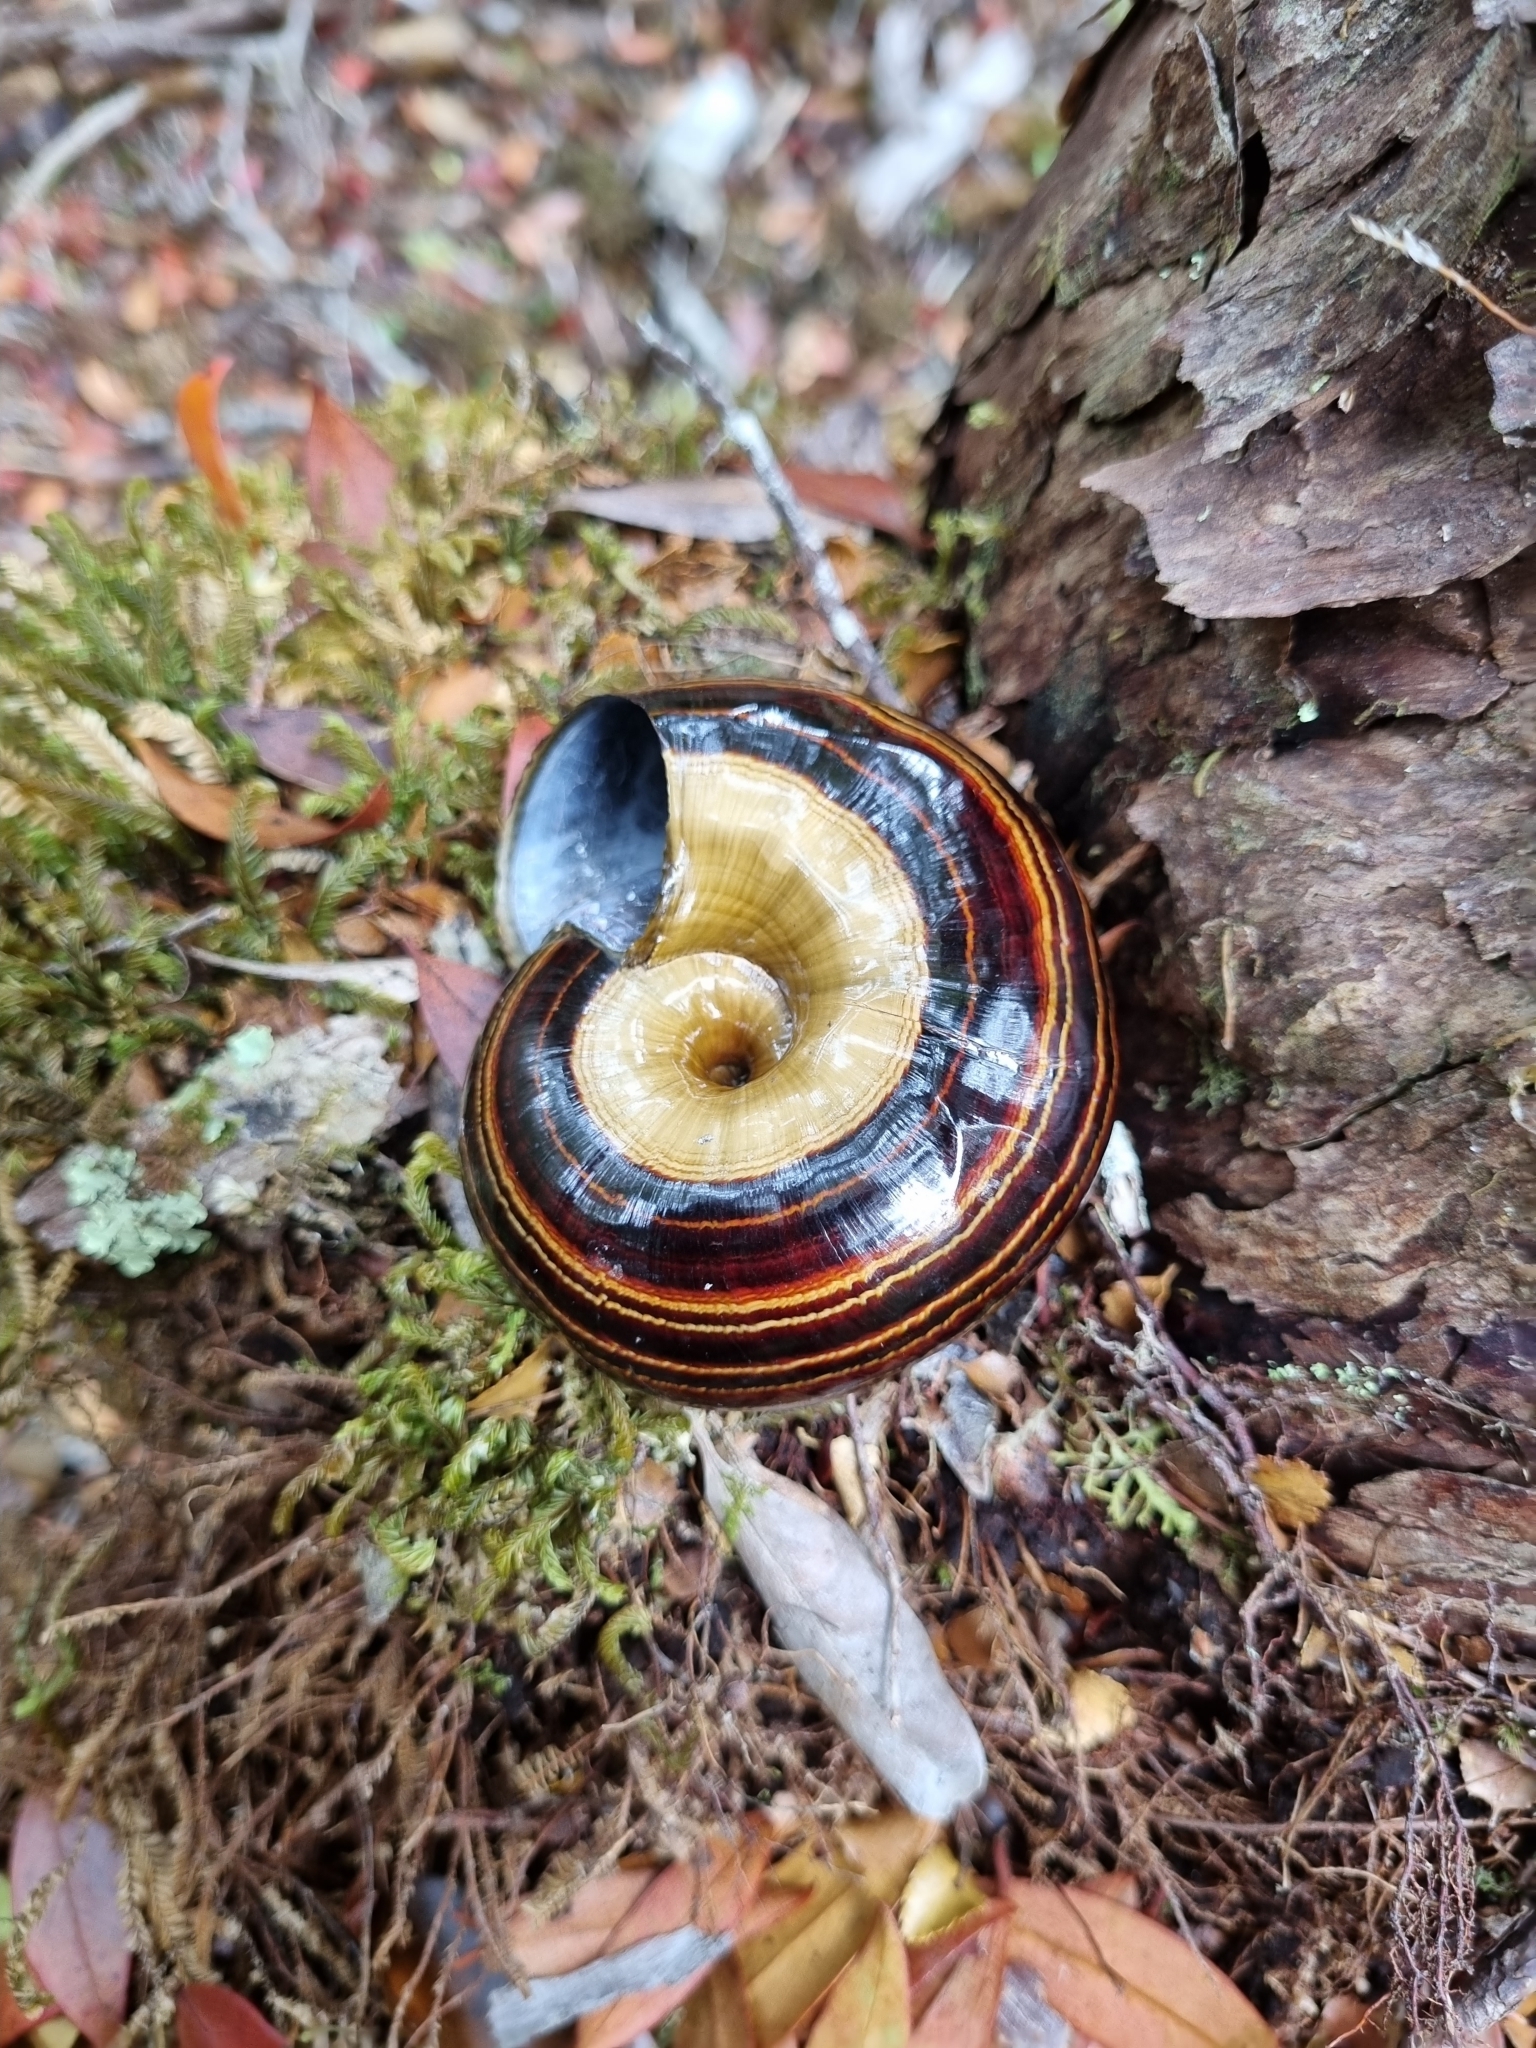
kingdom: Animalia
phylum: Mollusca
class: Gastropoda
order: Stylommatophora
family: Rhytididae
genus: Powelliphanta
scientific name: Powelliphanta hochstetteri
